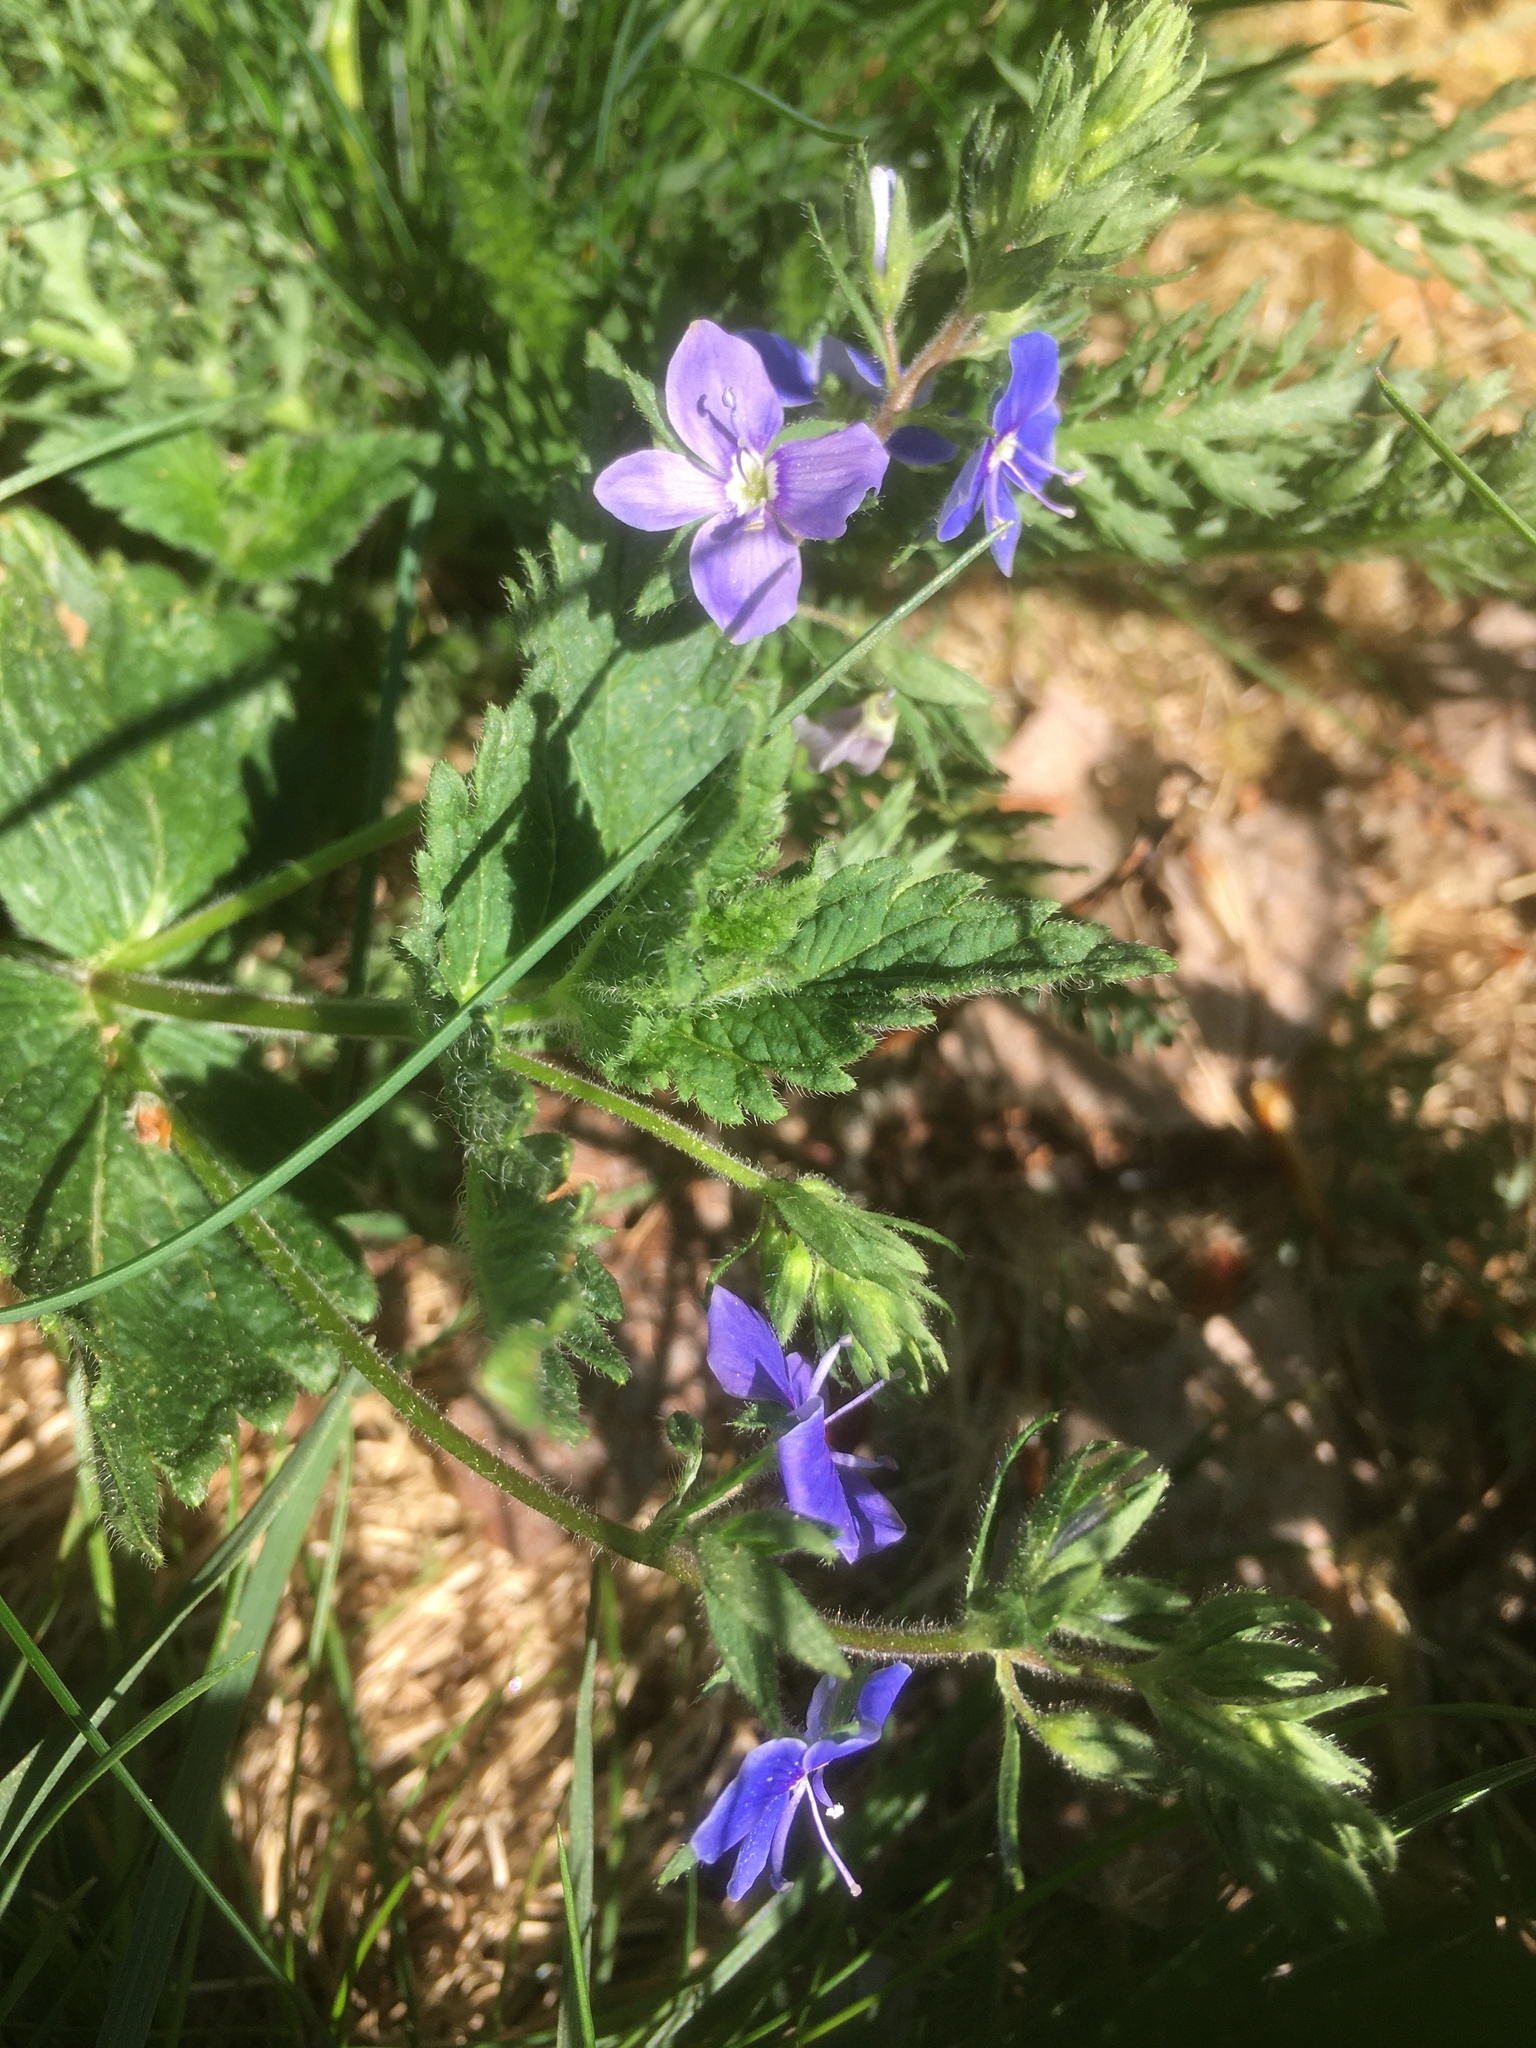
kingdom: Plantae
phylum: Tracheophyta
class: Magnoliopsida
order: Lamiales
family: Plantaginaceae
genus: Veronica
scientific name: Veronica chamaedrys
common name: Germander speedwell
